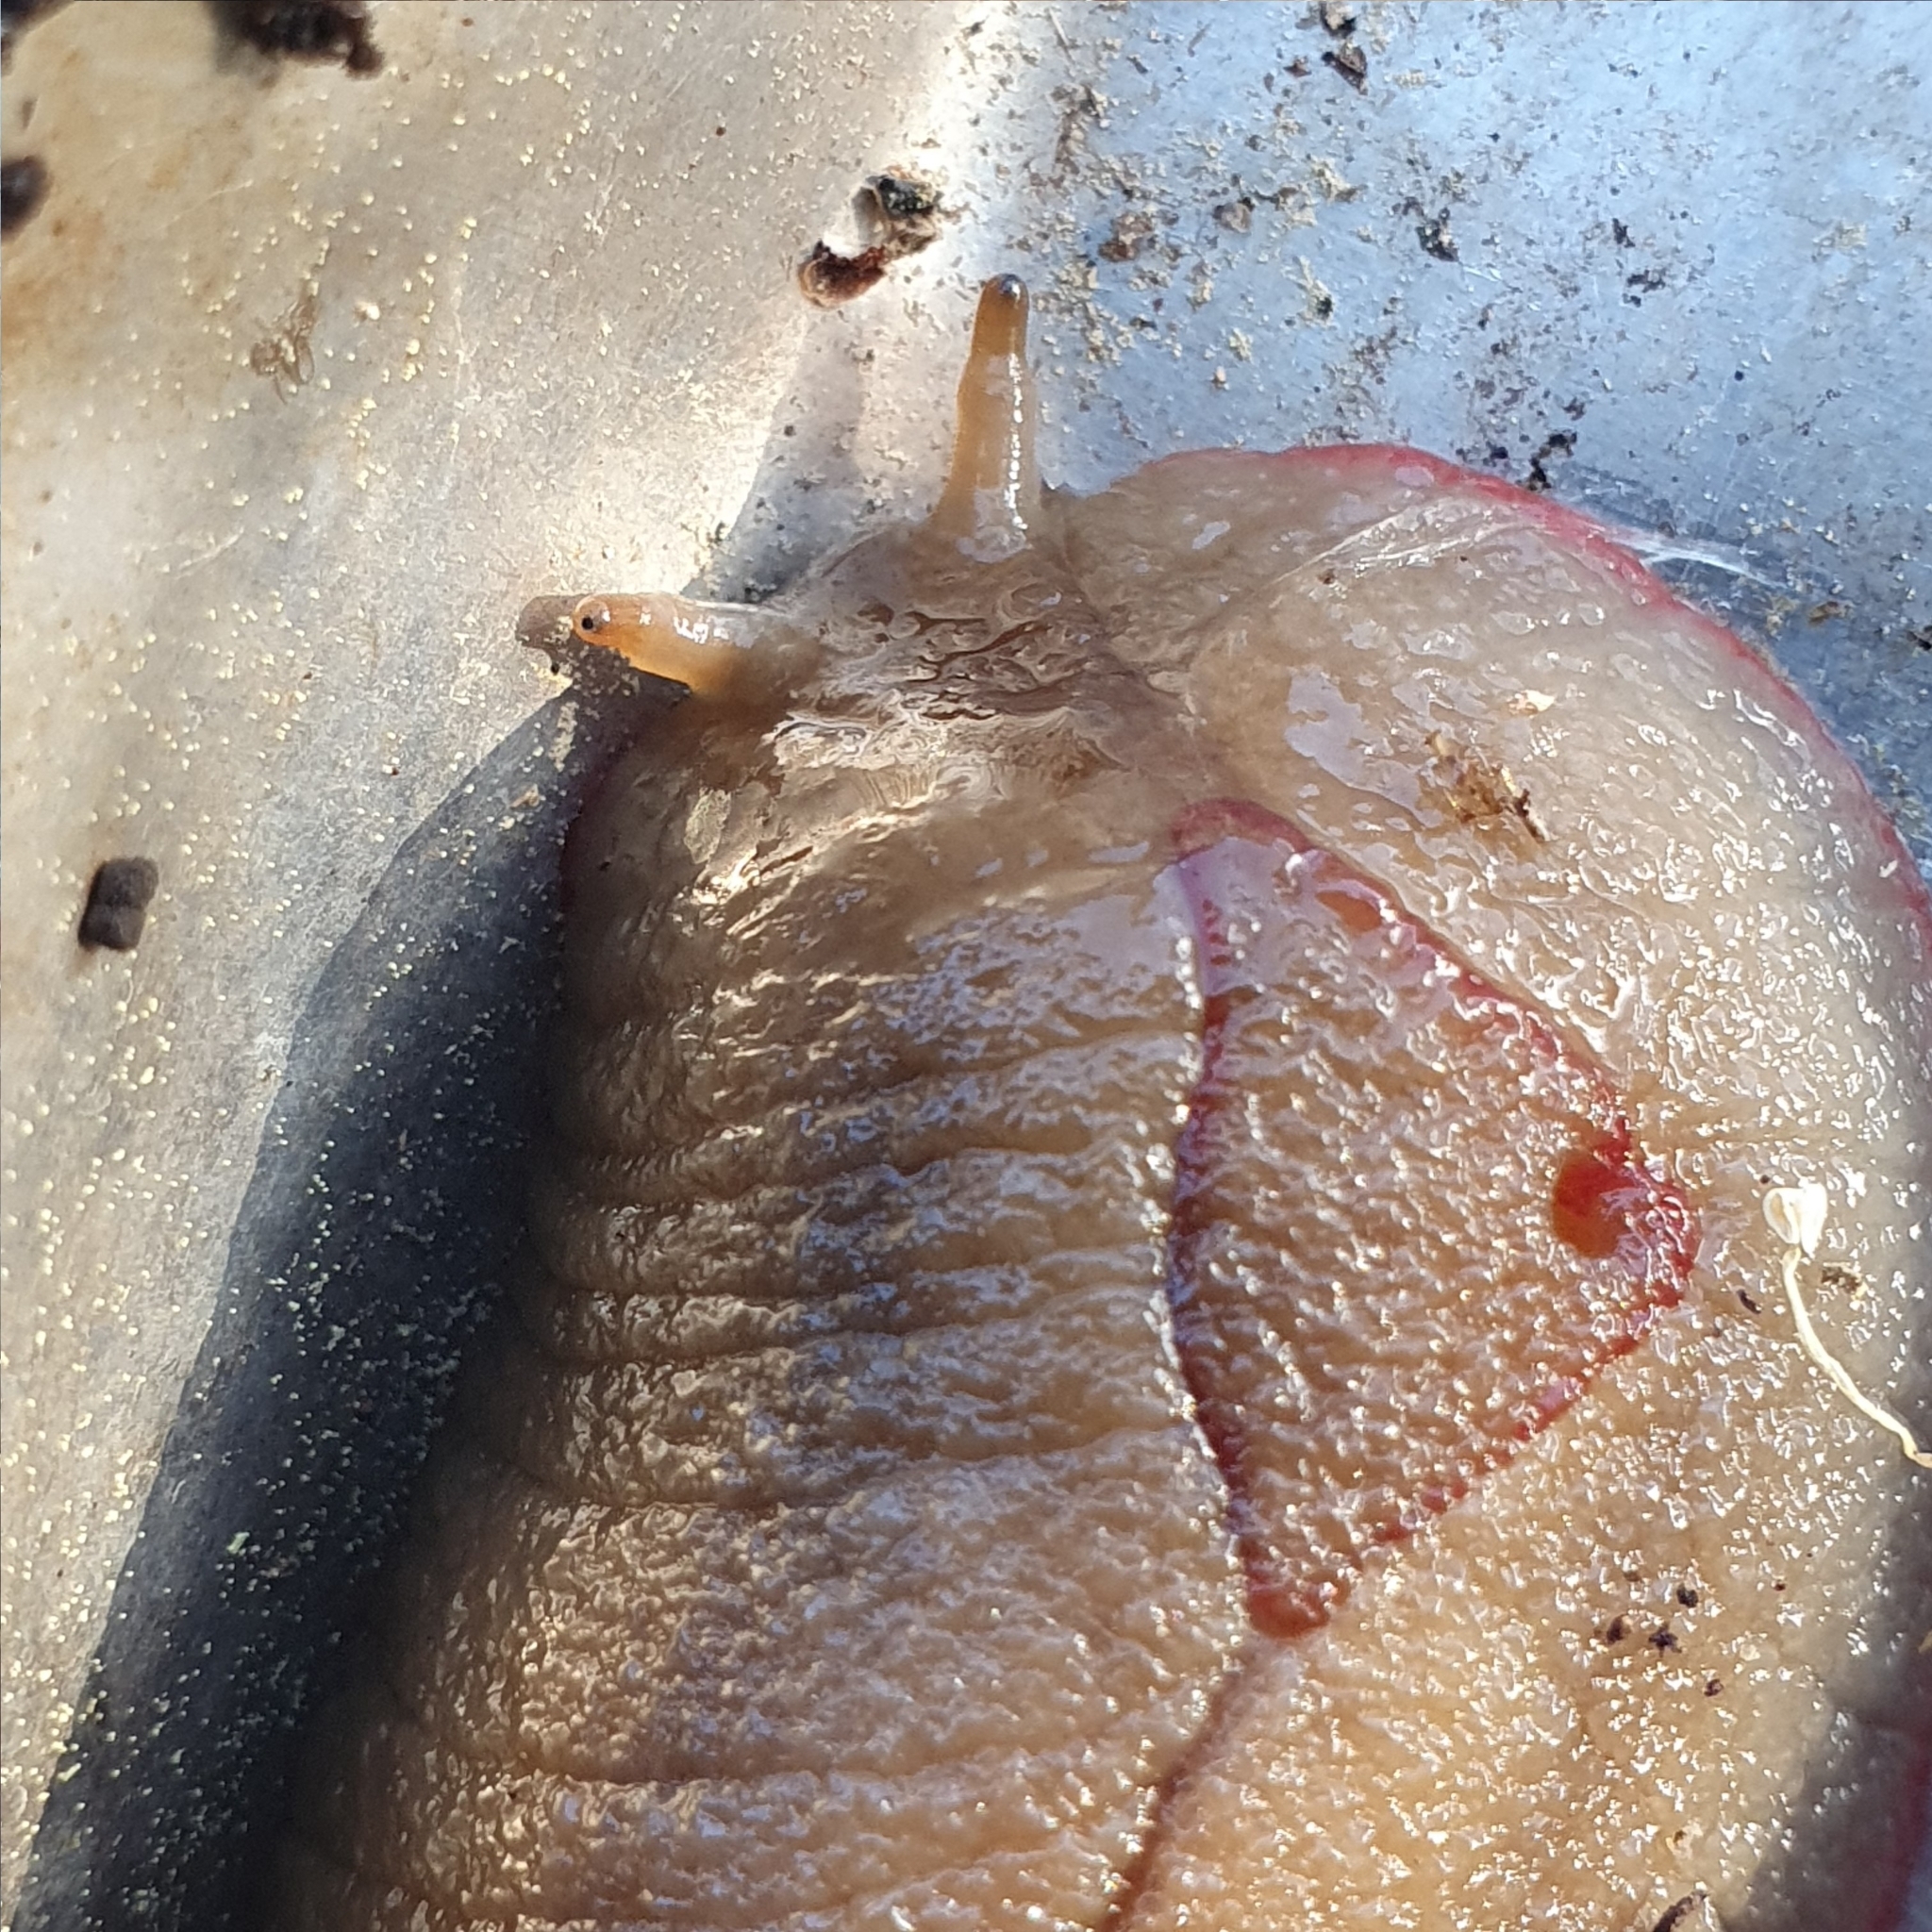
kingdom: Animalia
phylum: Mollusca
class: Gastropoda
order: Stylommatophora
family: Athoracophoridae
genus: Triboniophorus
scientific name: Triboniophorus graeffei
